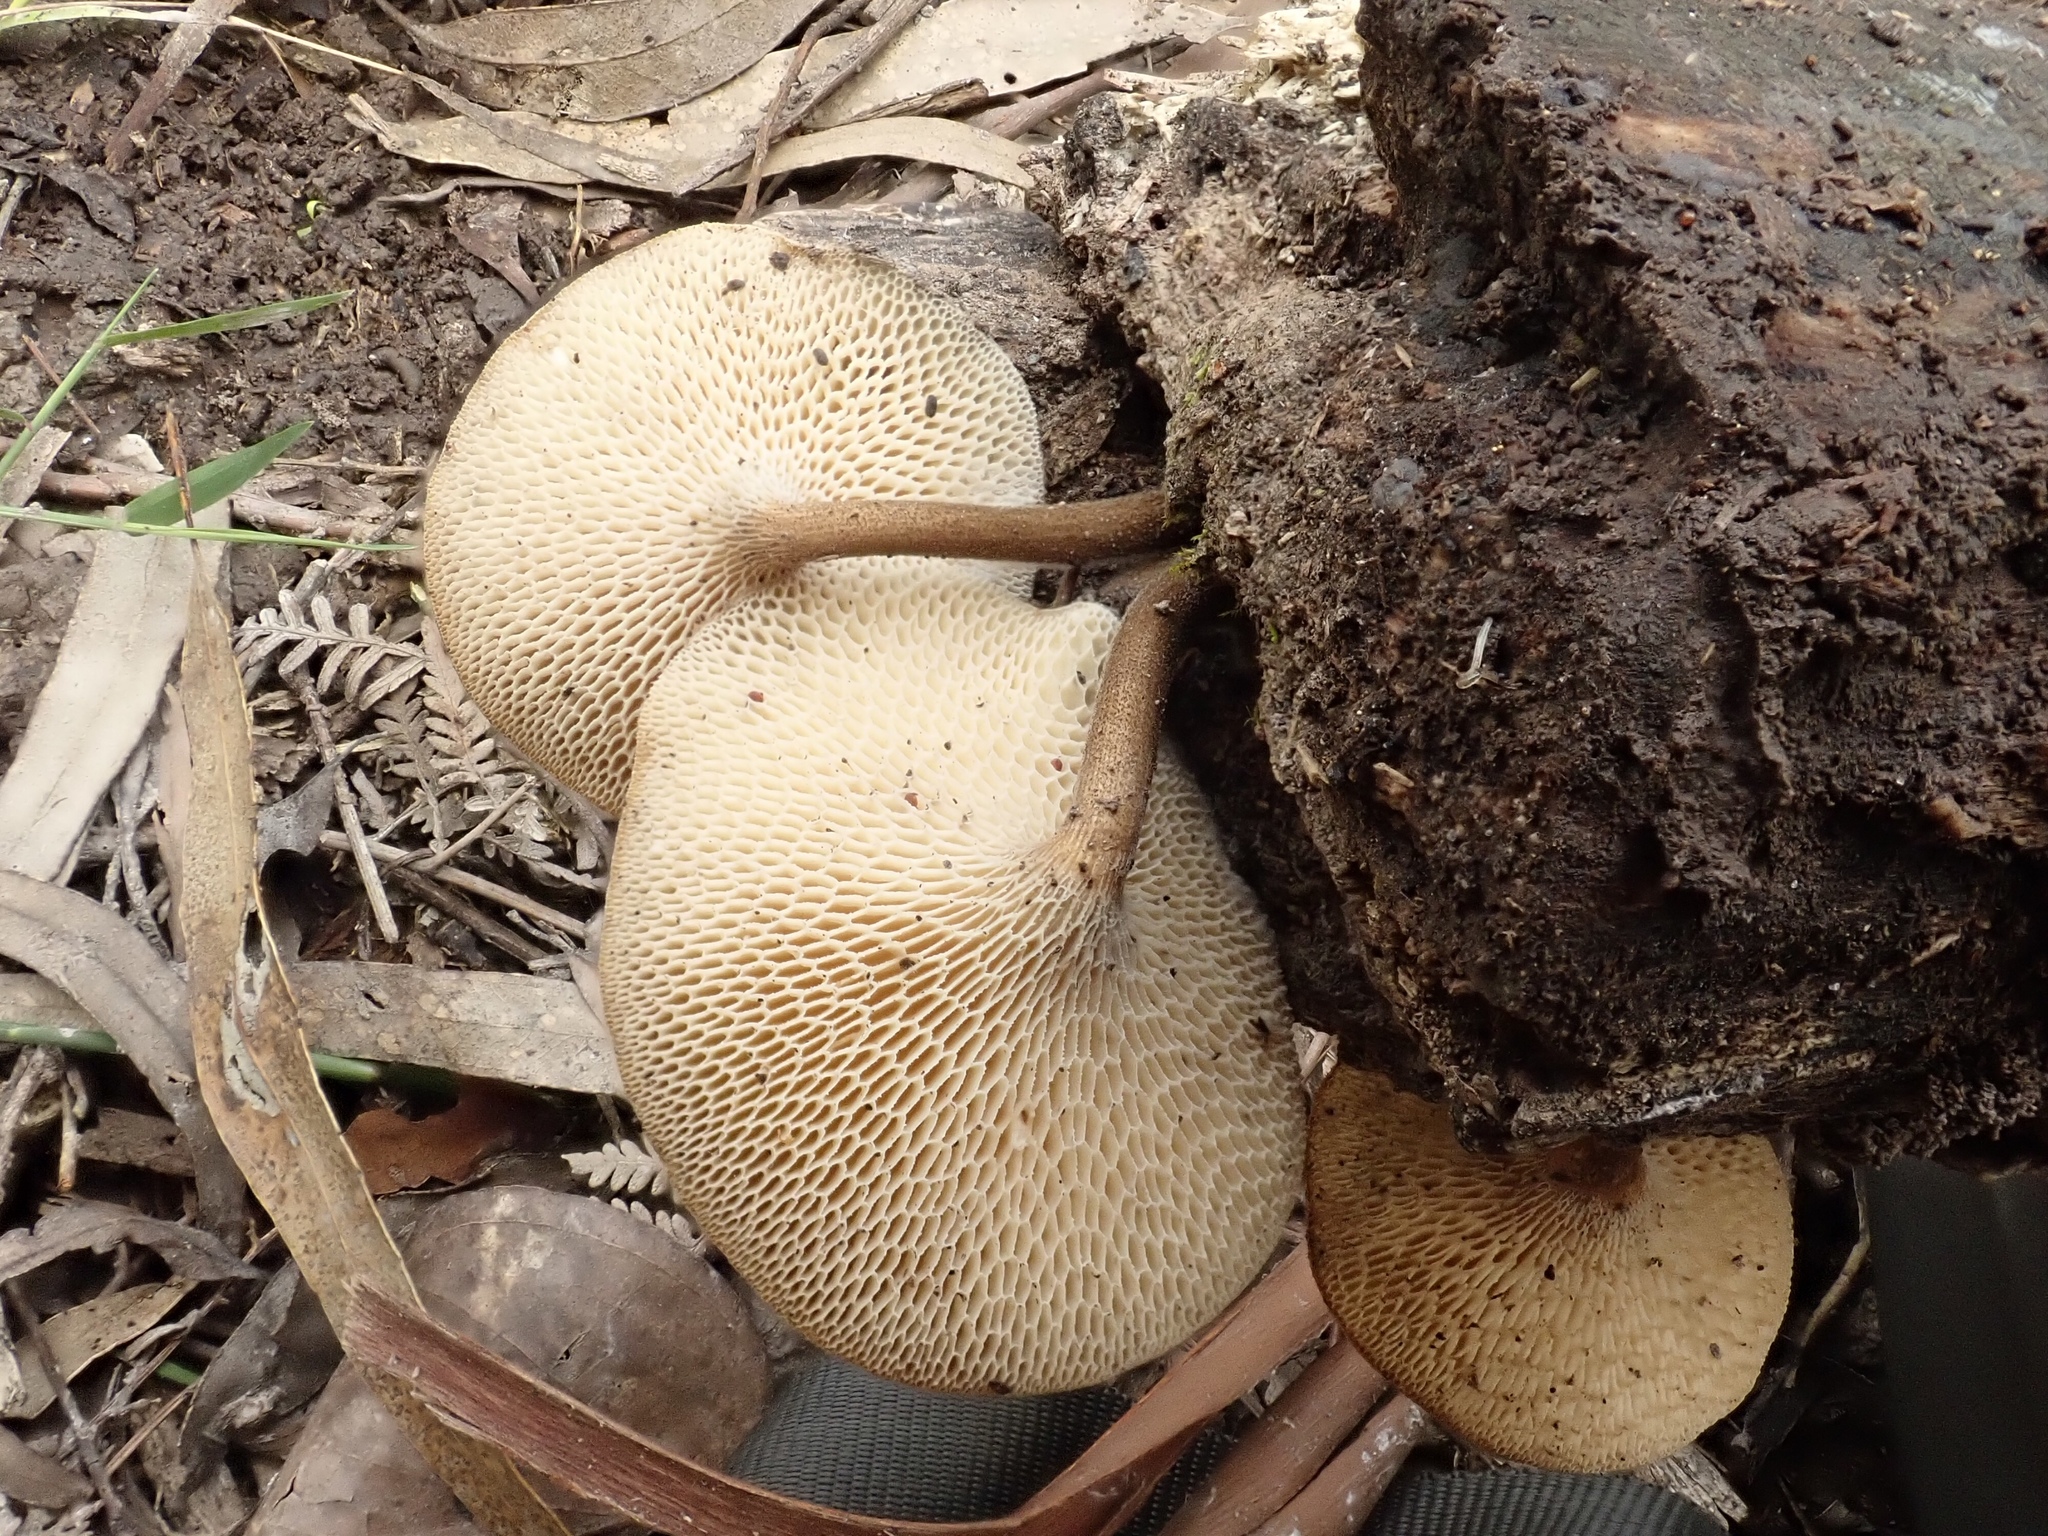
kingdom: Fungi
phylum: Basidiomycota
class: Agaricomycetes
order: Polyporales
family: Polyporaceae
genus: Lentinus
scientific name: Lentinus arcularius
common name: Spring polypore
